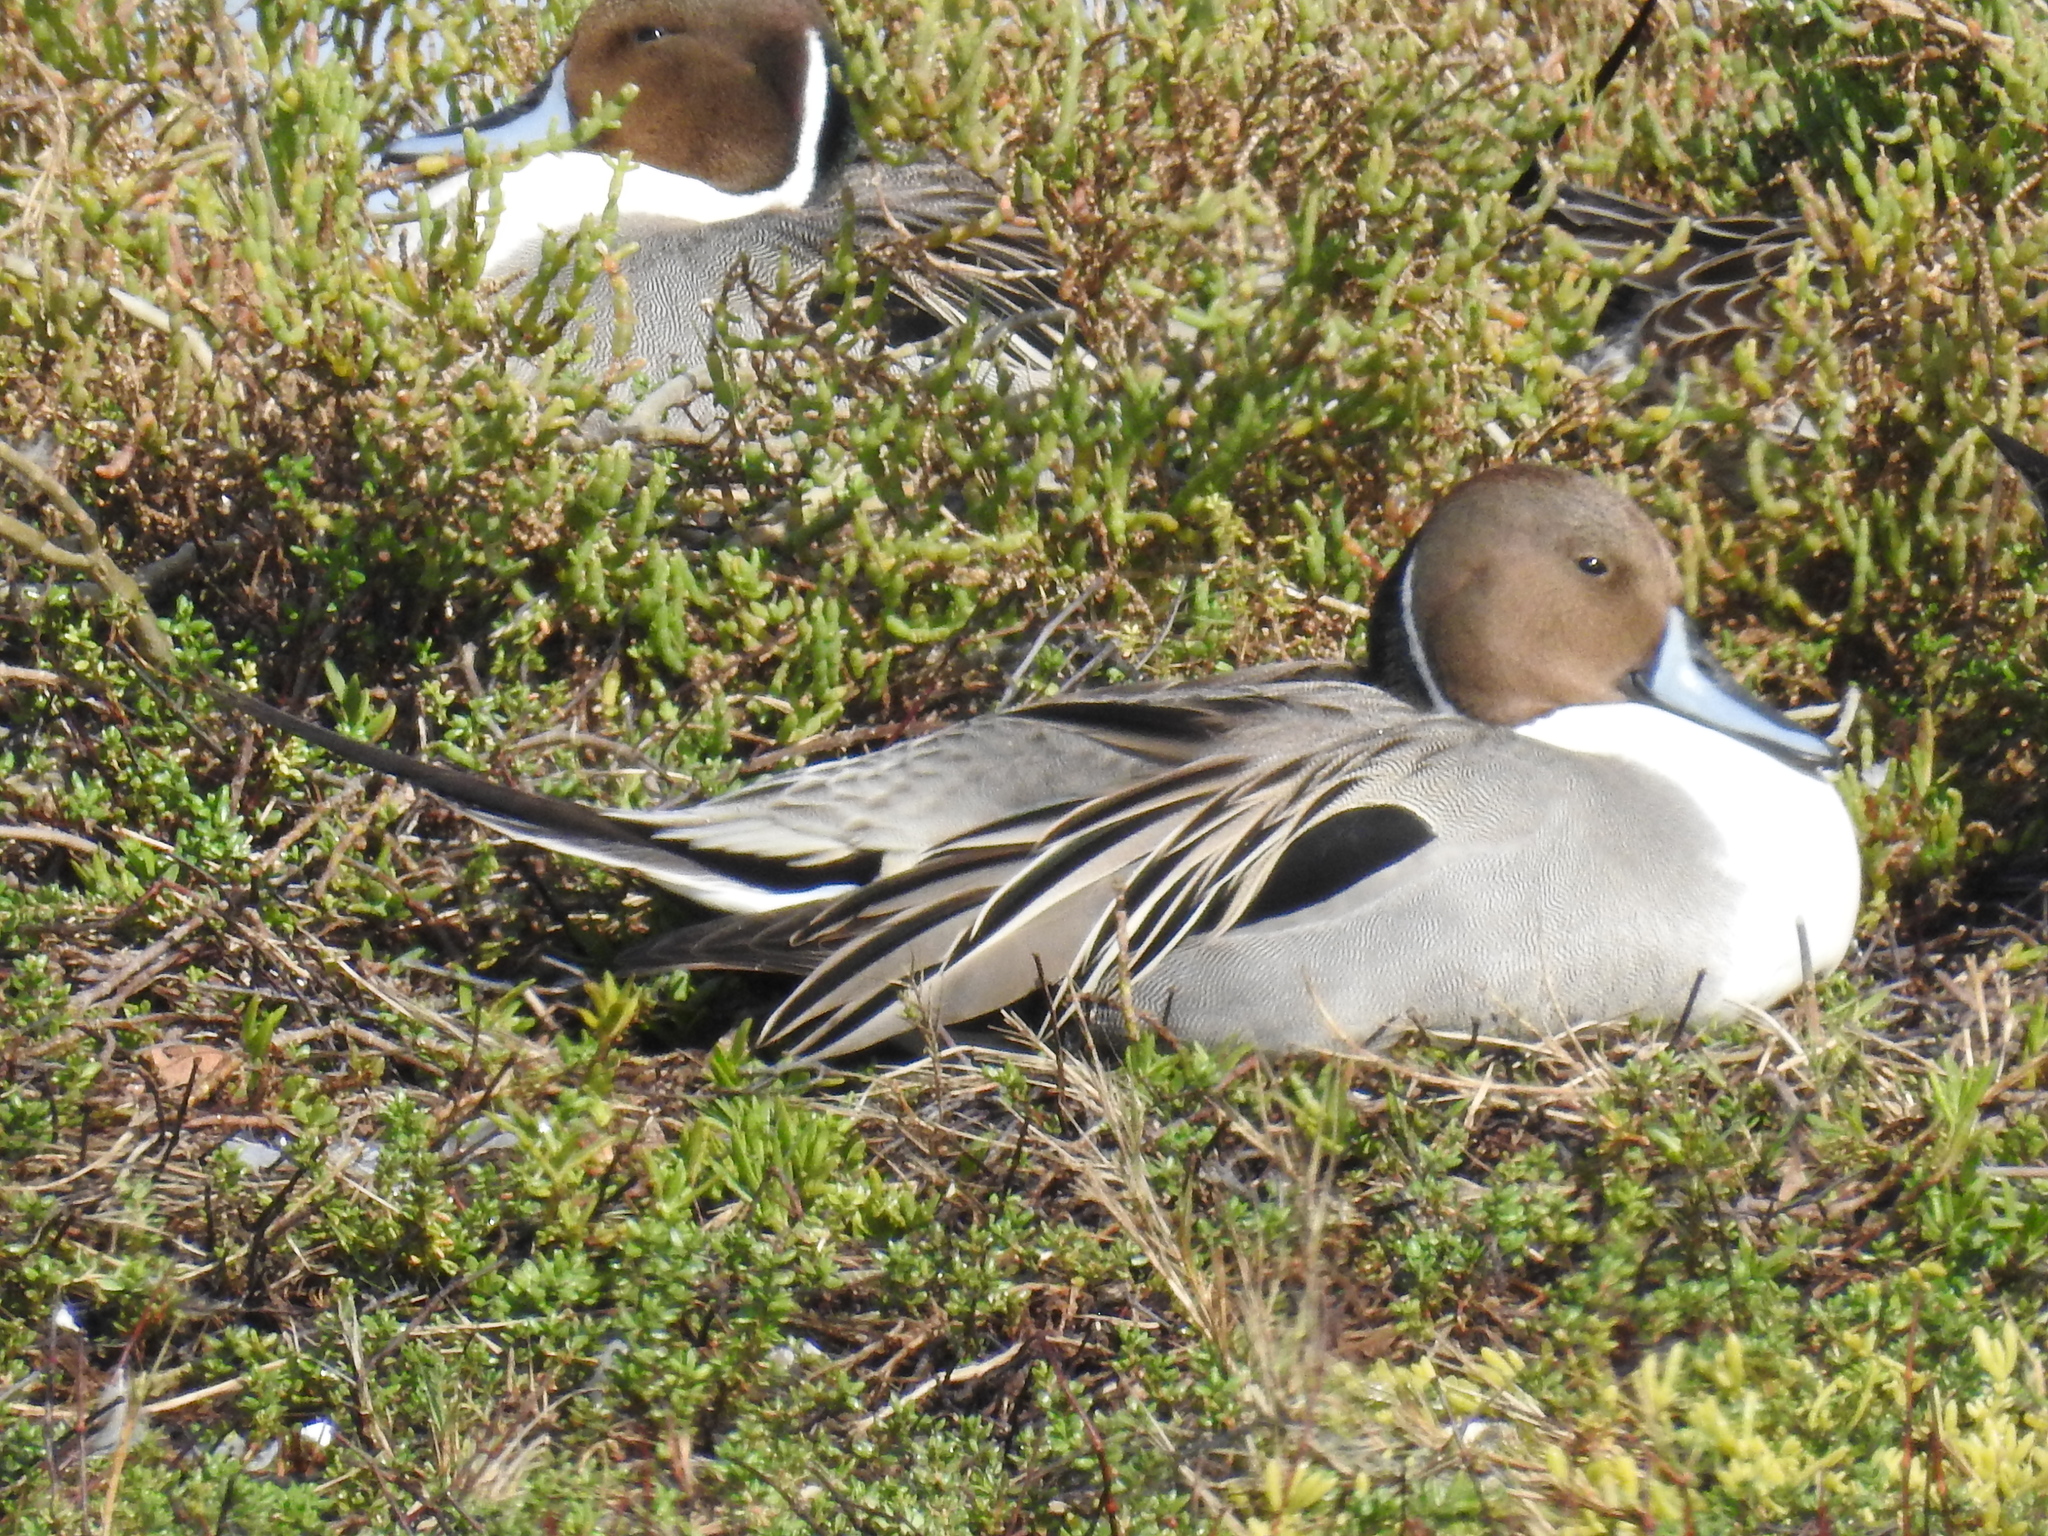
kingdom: Animalia
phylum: Chordata
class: Aves
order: Anseriformes
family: Anatidae
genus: Anas
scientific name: Anas acuta
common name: Northern pintail
